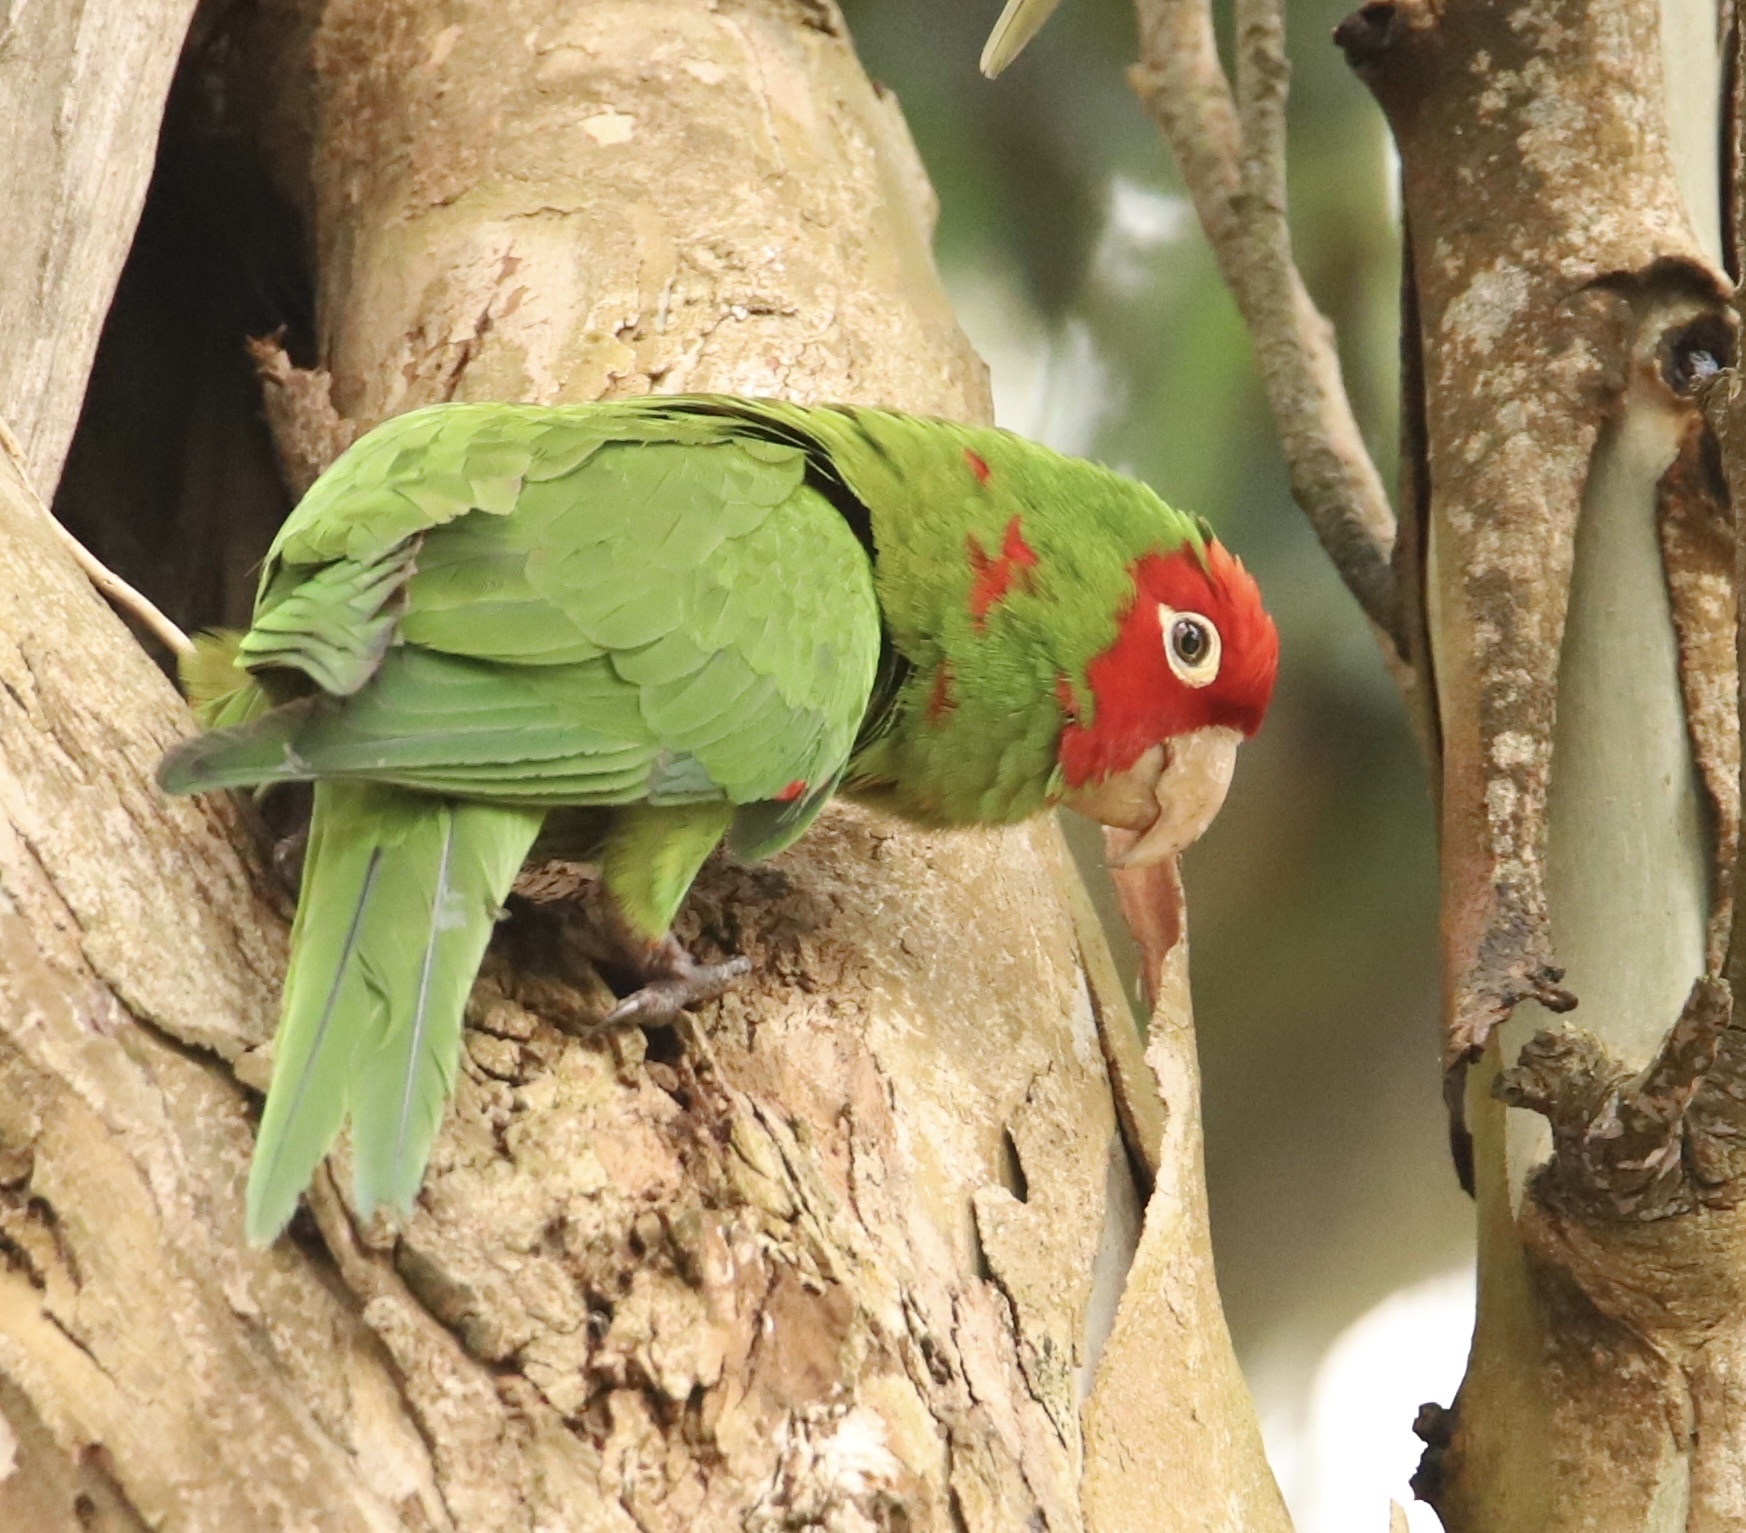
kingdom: Animalia
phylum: Chordata
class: Aves
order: Psittaciformes
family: Psittacidae
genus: Aratinga
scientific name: Aratinga erythrogenys
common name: Red-masked parakeet
